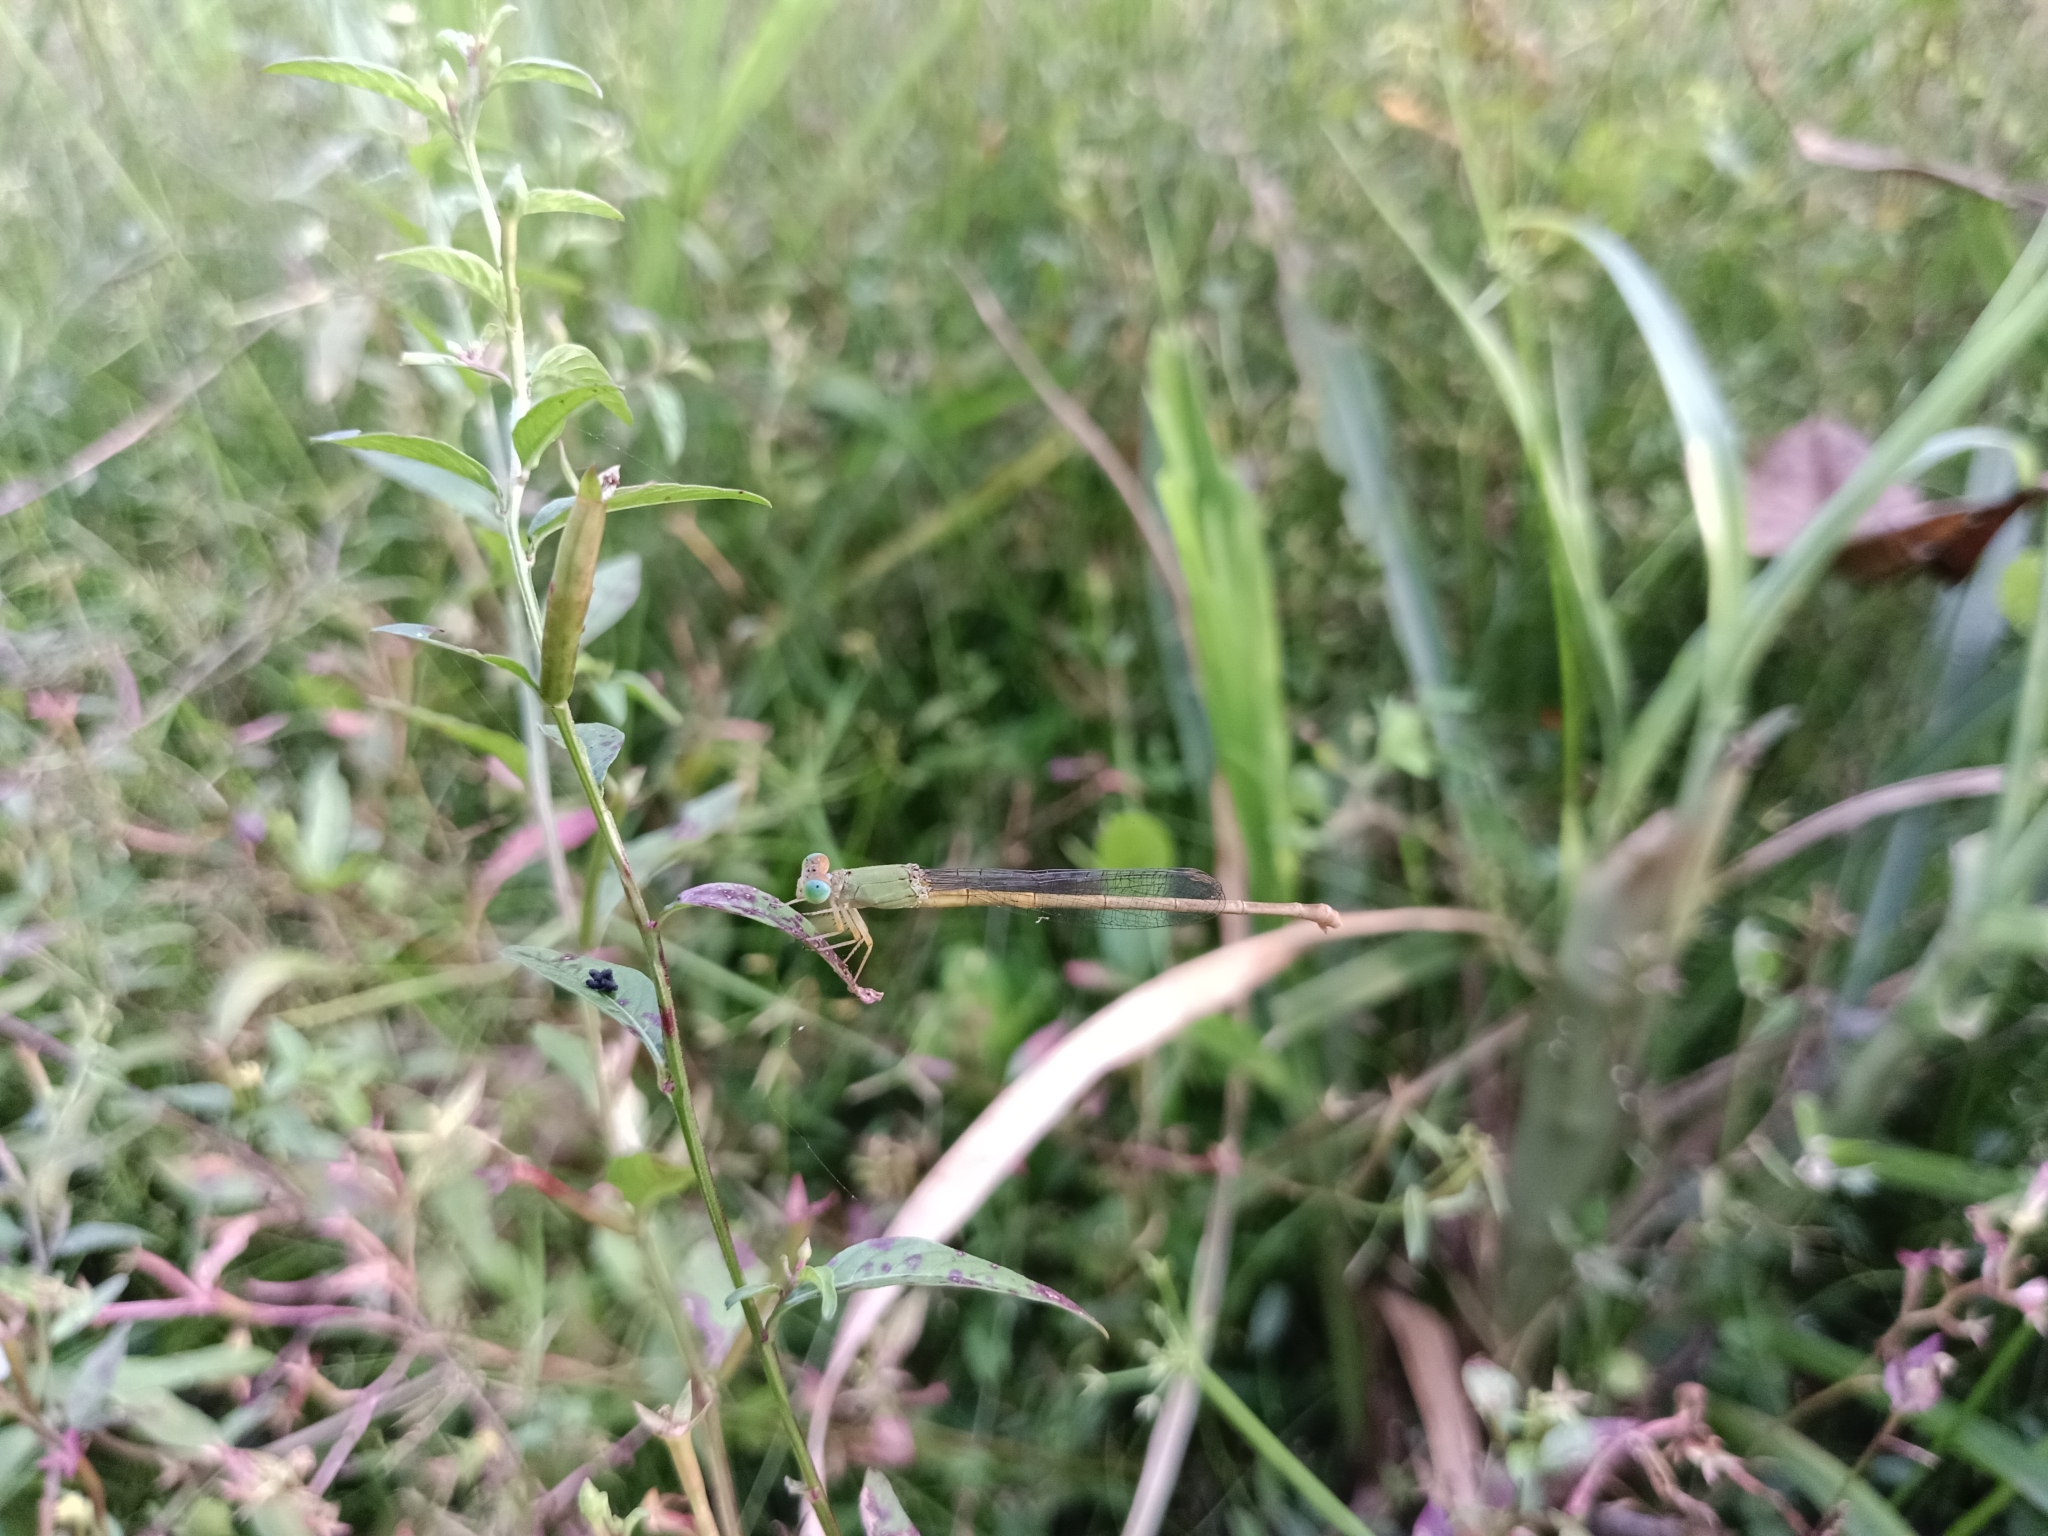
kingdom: Animalia
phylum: Arthropoda
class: Insecta
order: Odonata
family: Coenagrionidae
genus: Ceriagrion
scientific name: Ceriagrion coromandelianum
